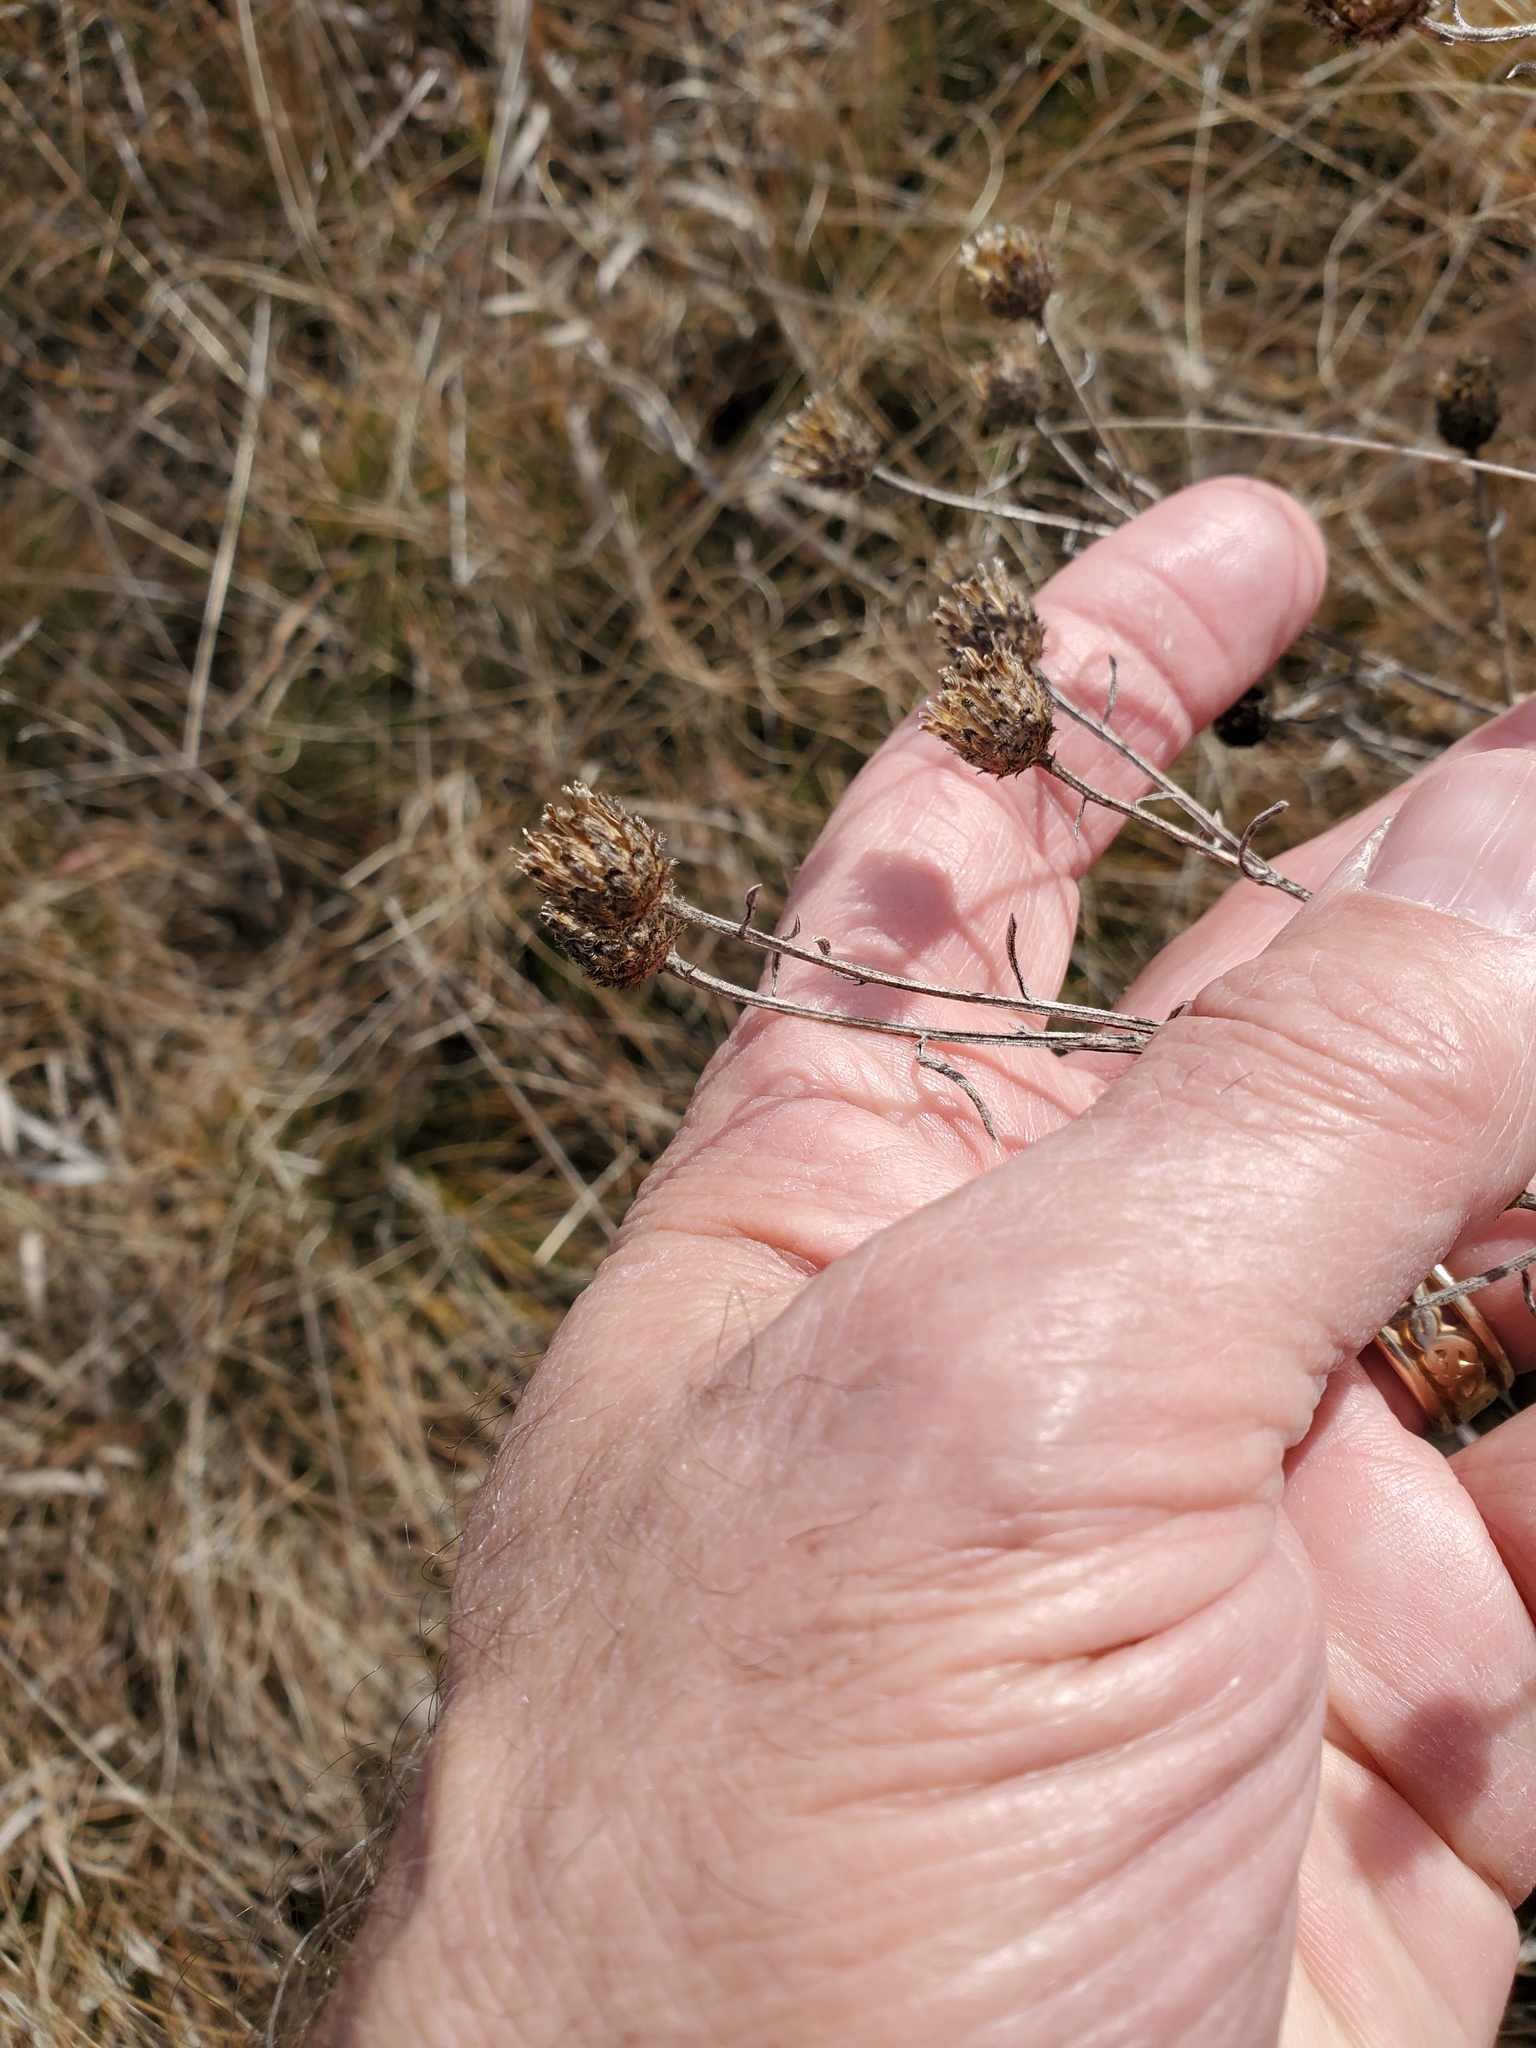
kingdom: Plantae
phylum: Tracheophyta
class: Magnoliopsida
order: Asterales
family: Asteraceae
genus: Centaurea
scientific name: Centaurea stoebe
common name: Spotted knapweed
